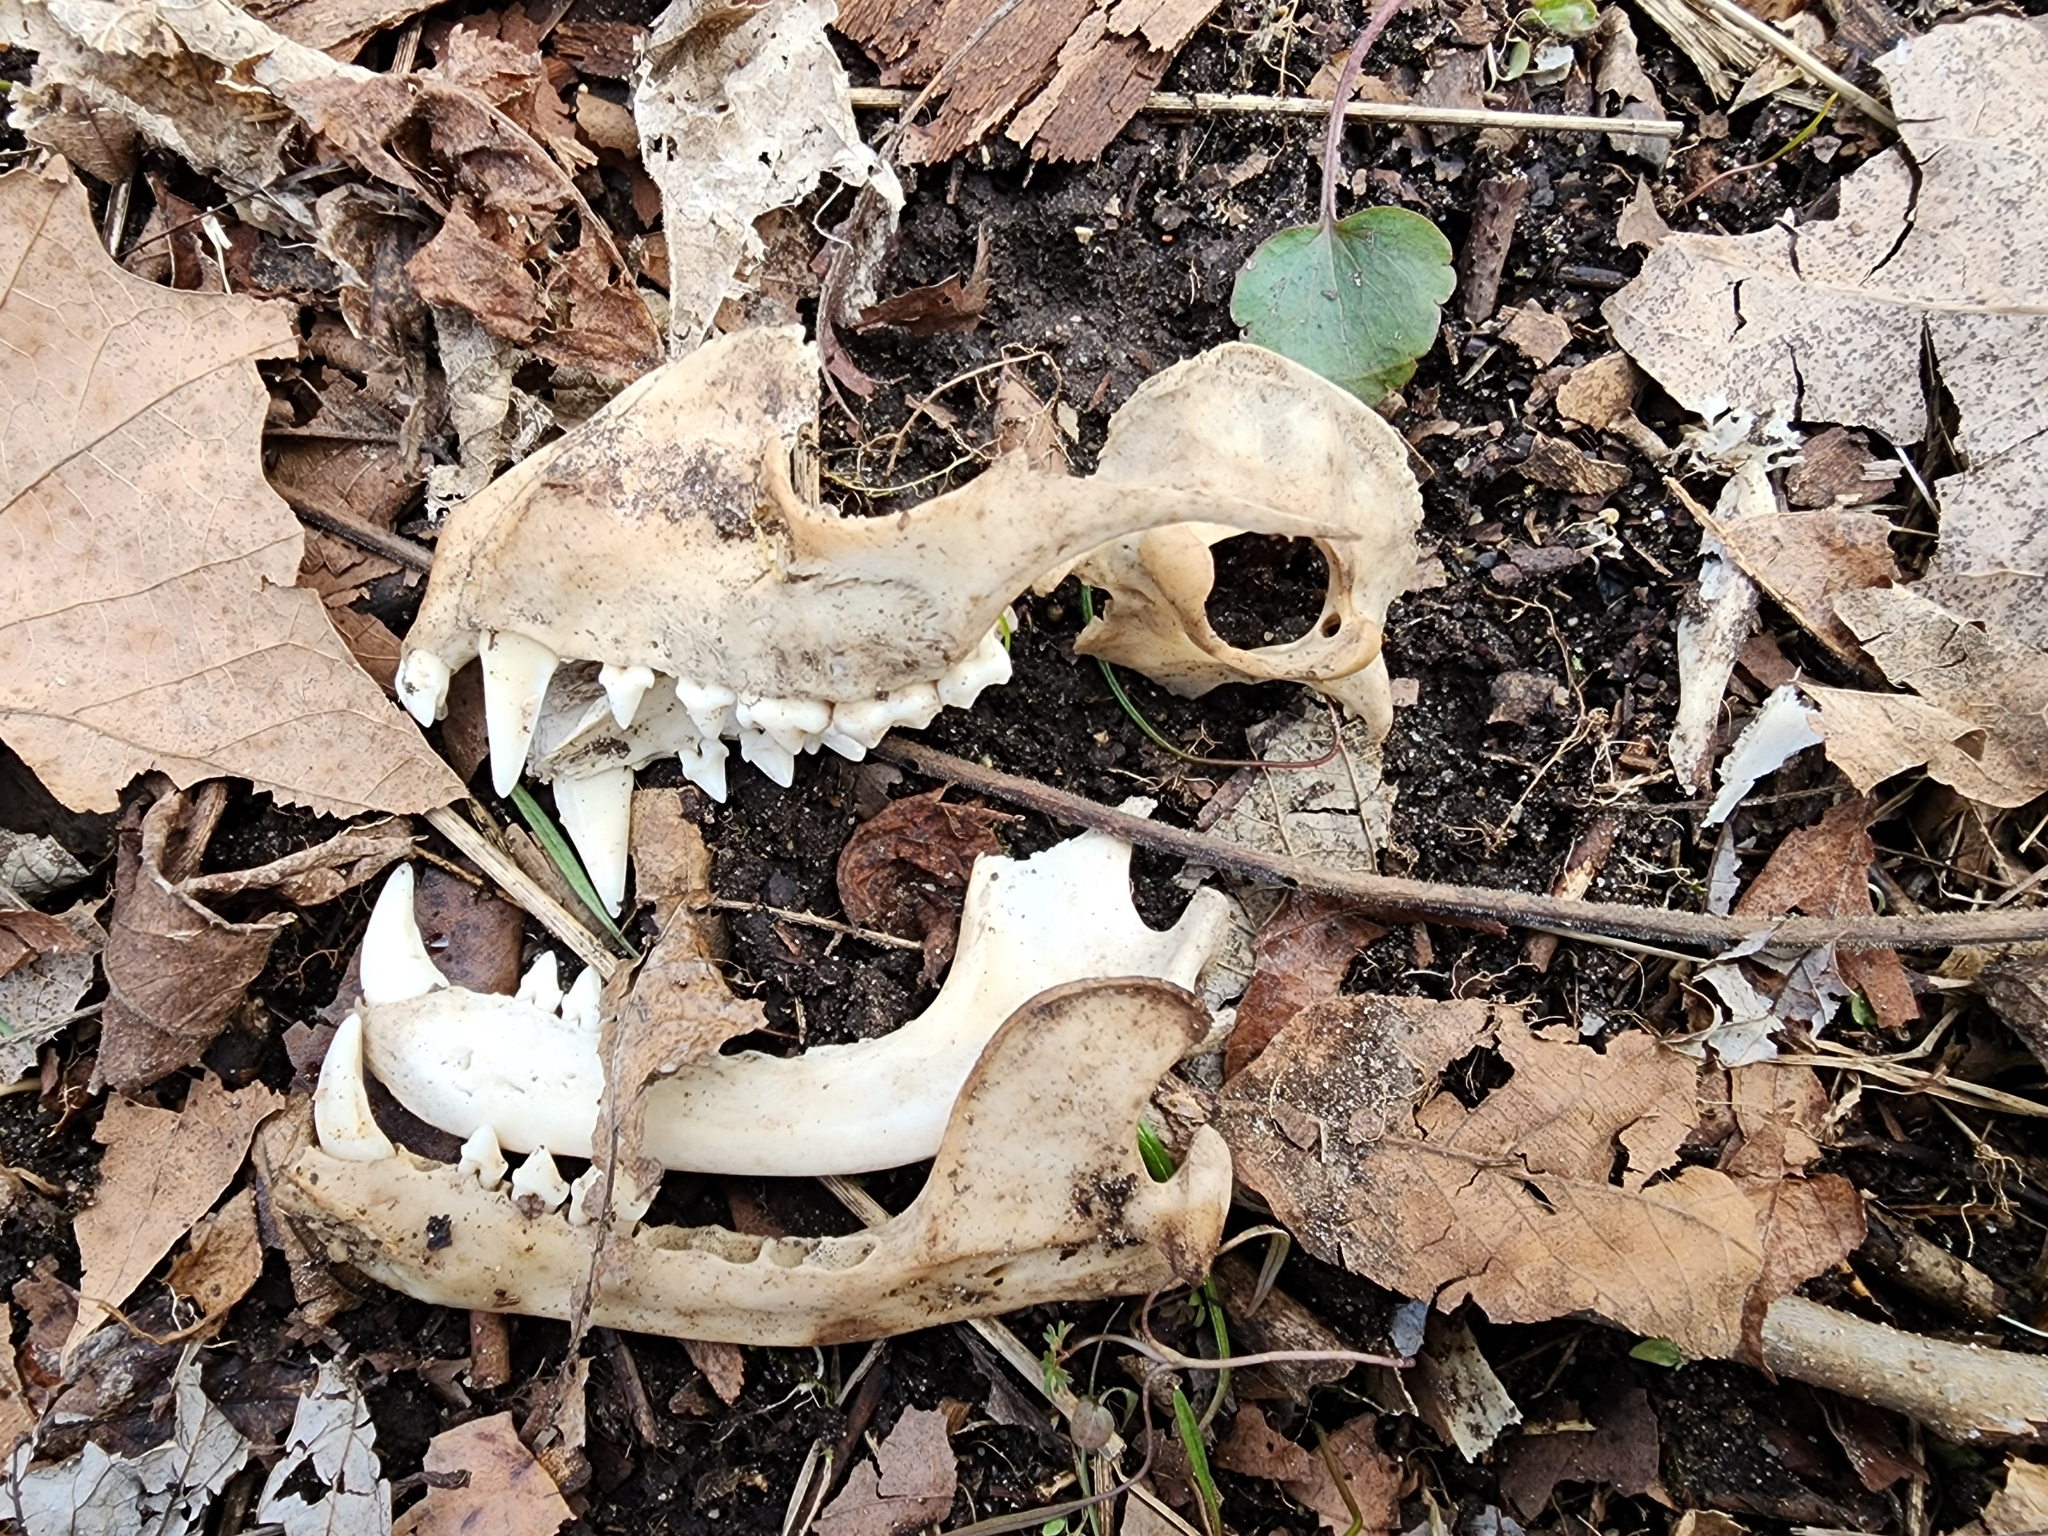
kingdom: Animalia
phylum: Chordata
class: Mammalia
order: Carnivora
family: Procyonidae
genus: Procyon
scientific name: Procyon lotor
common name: Raccoon
